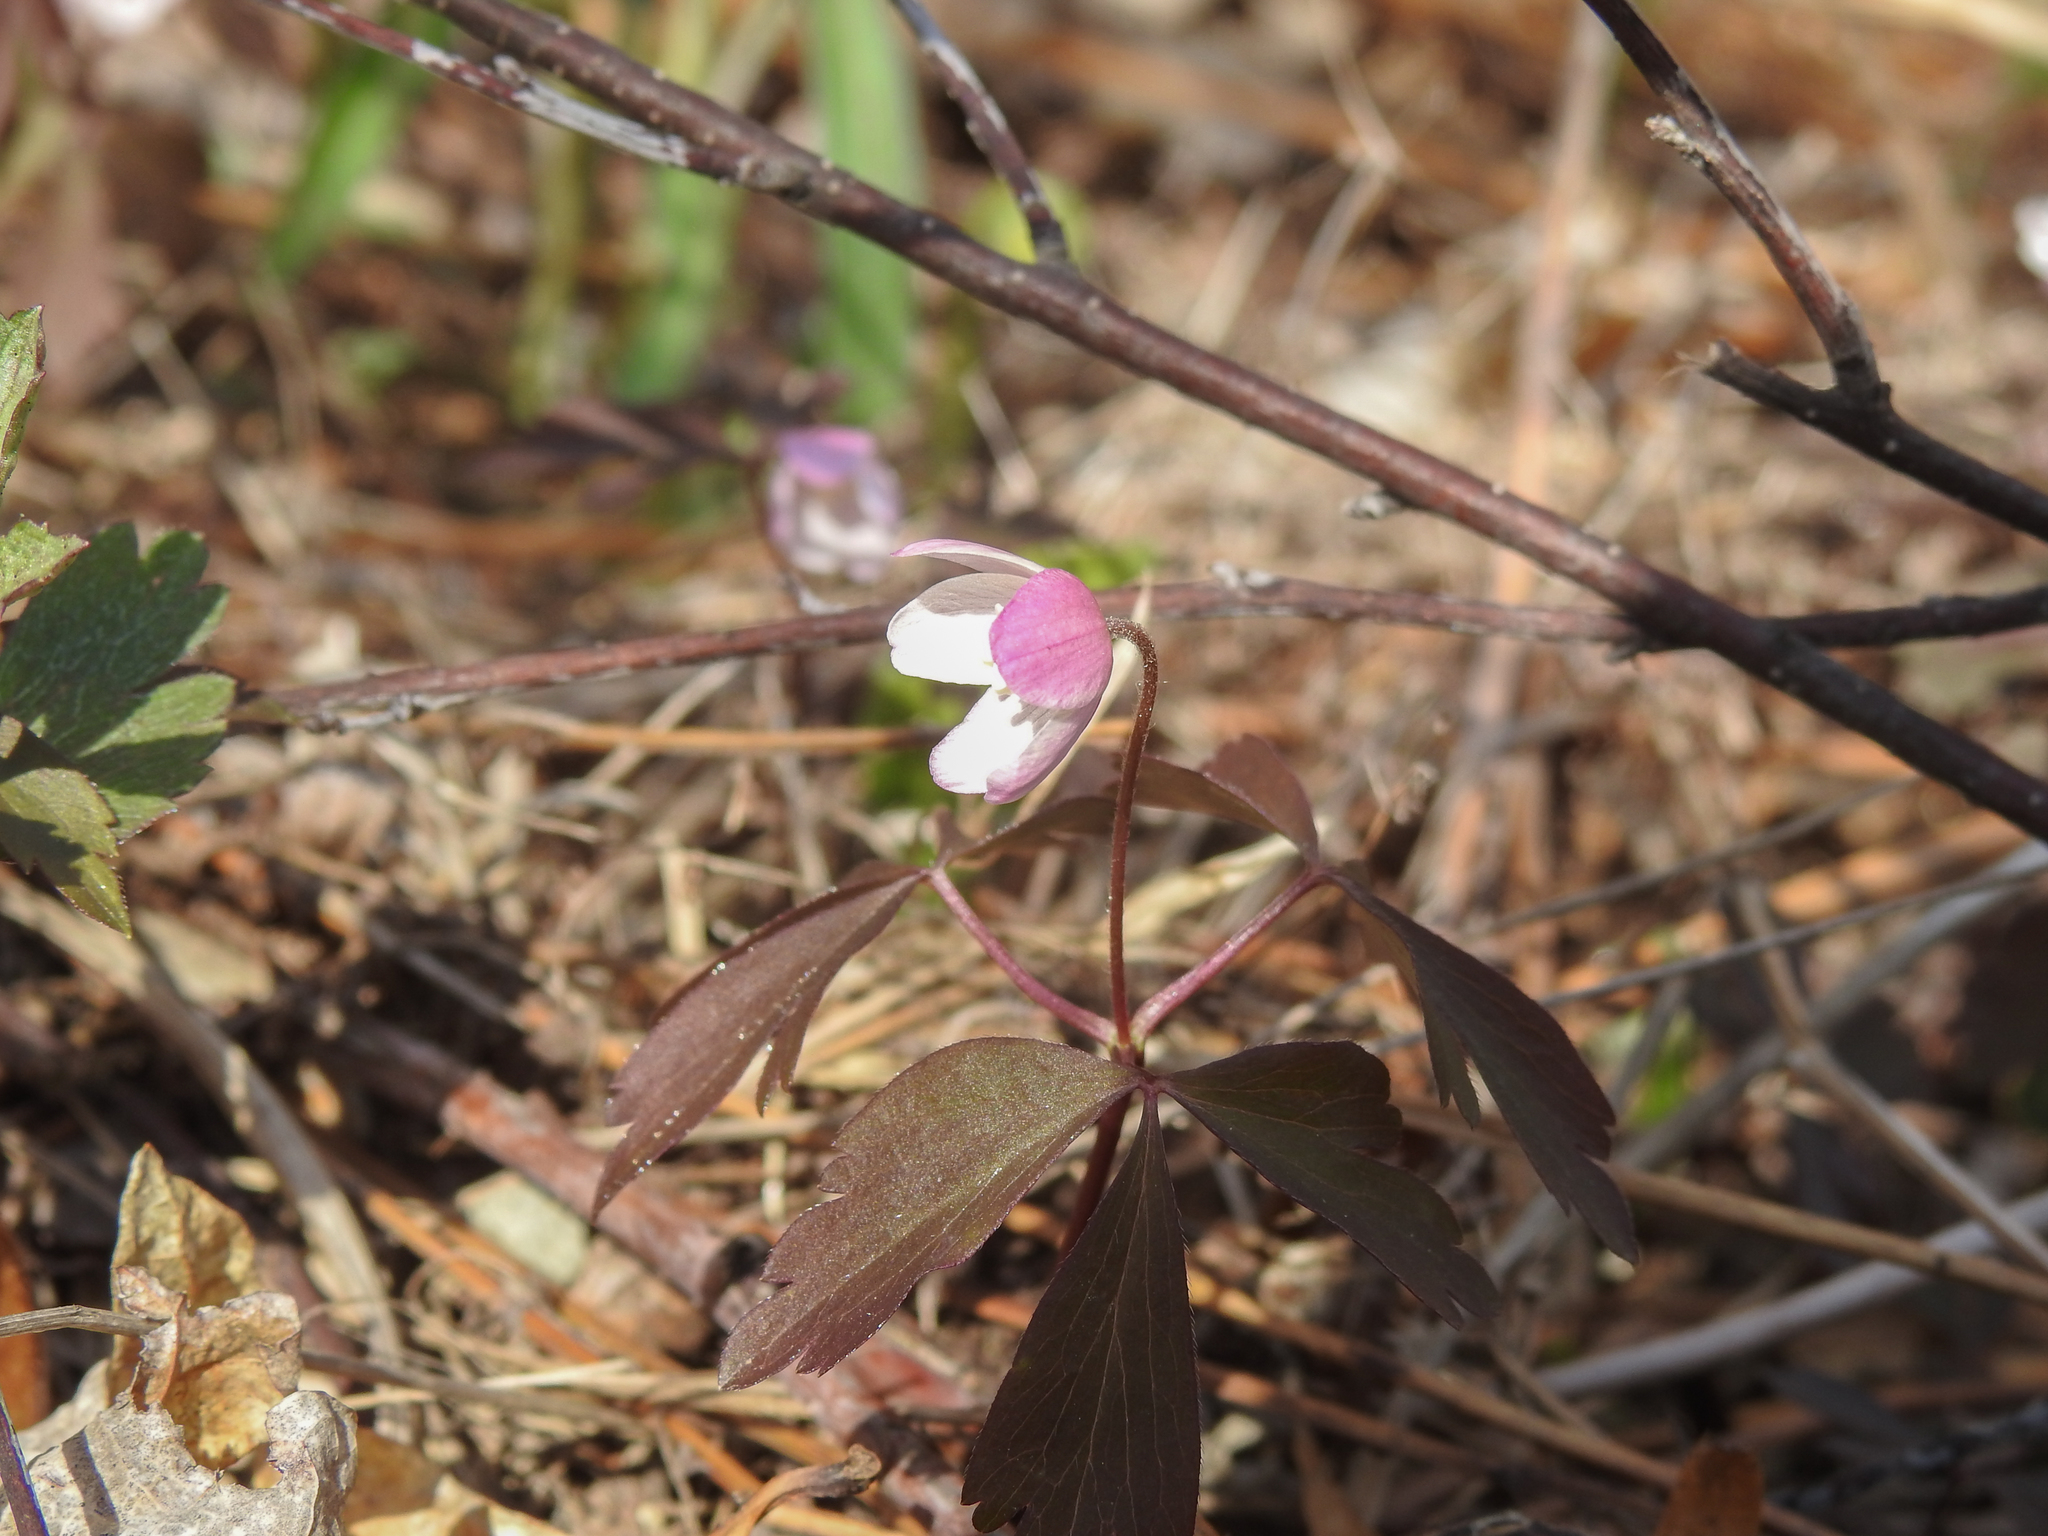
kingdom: Plantae
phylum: Tracheophyta
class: Magnoliopsida
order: Ranunculales
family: Ranunculaceae
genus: Anemone
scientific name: Anemone quinquefolia
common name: Wood anemone
